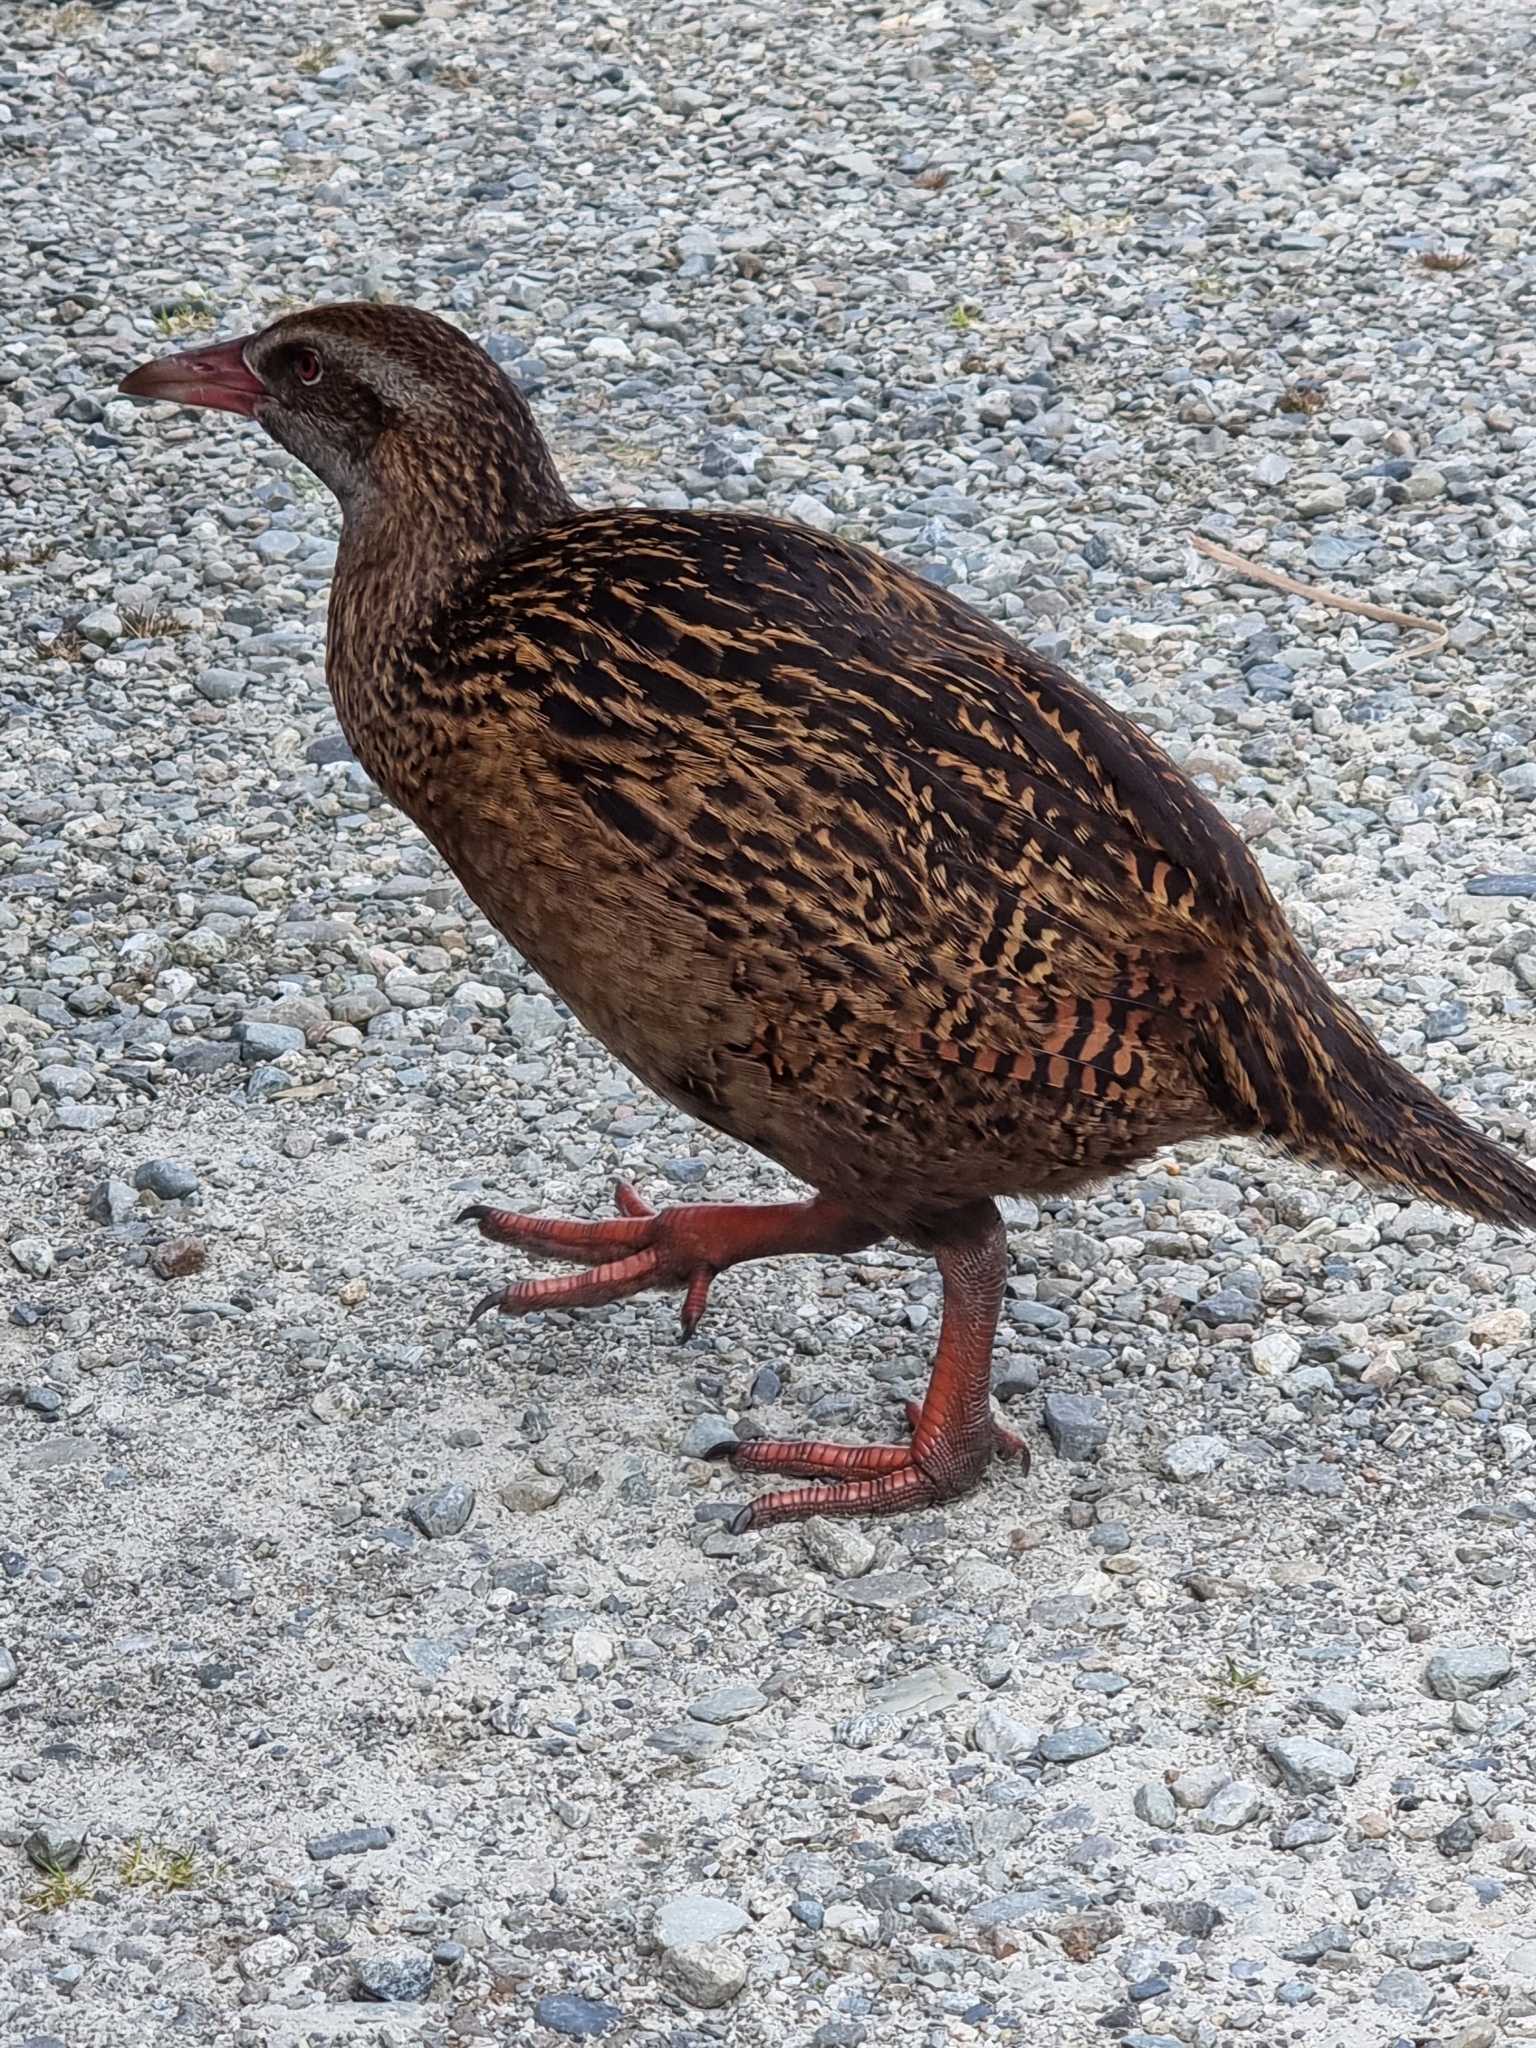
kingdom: Animalia
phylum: Chordata
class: Aves
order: Gruiformes
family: Rallidae
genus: Gallirallus
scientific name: Gallirallus australis
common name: Weka
